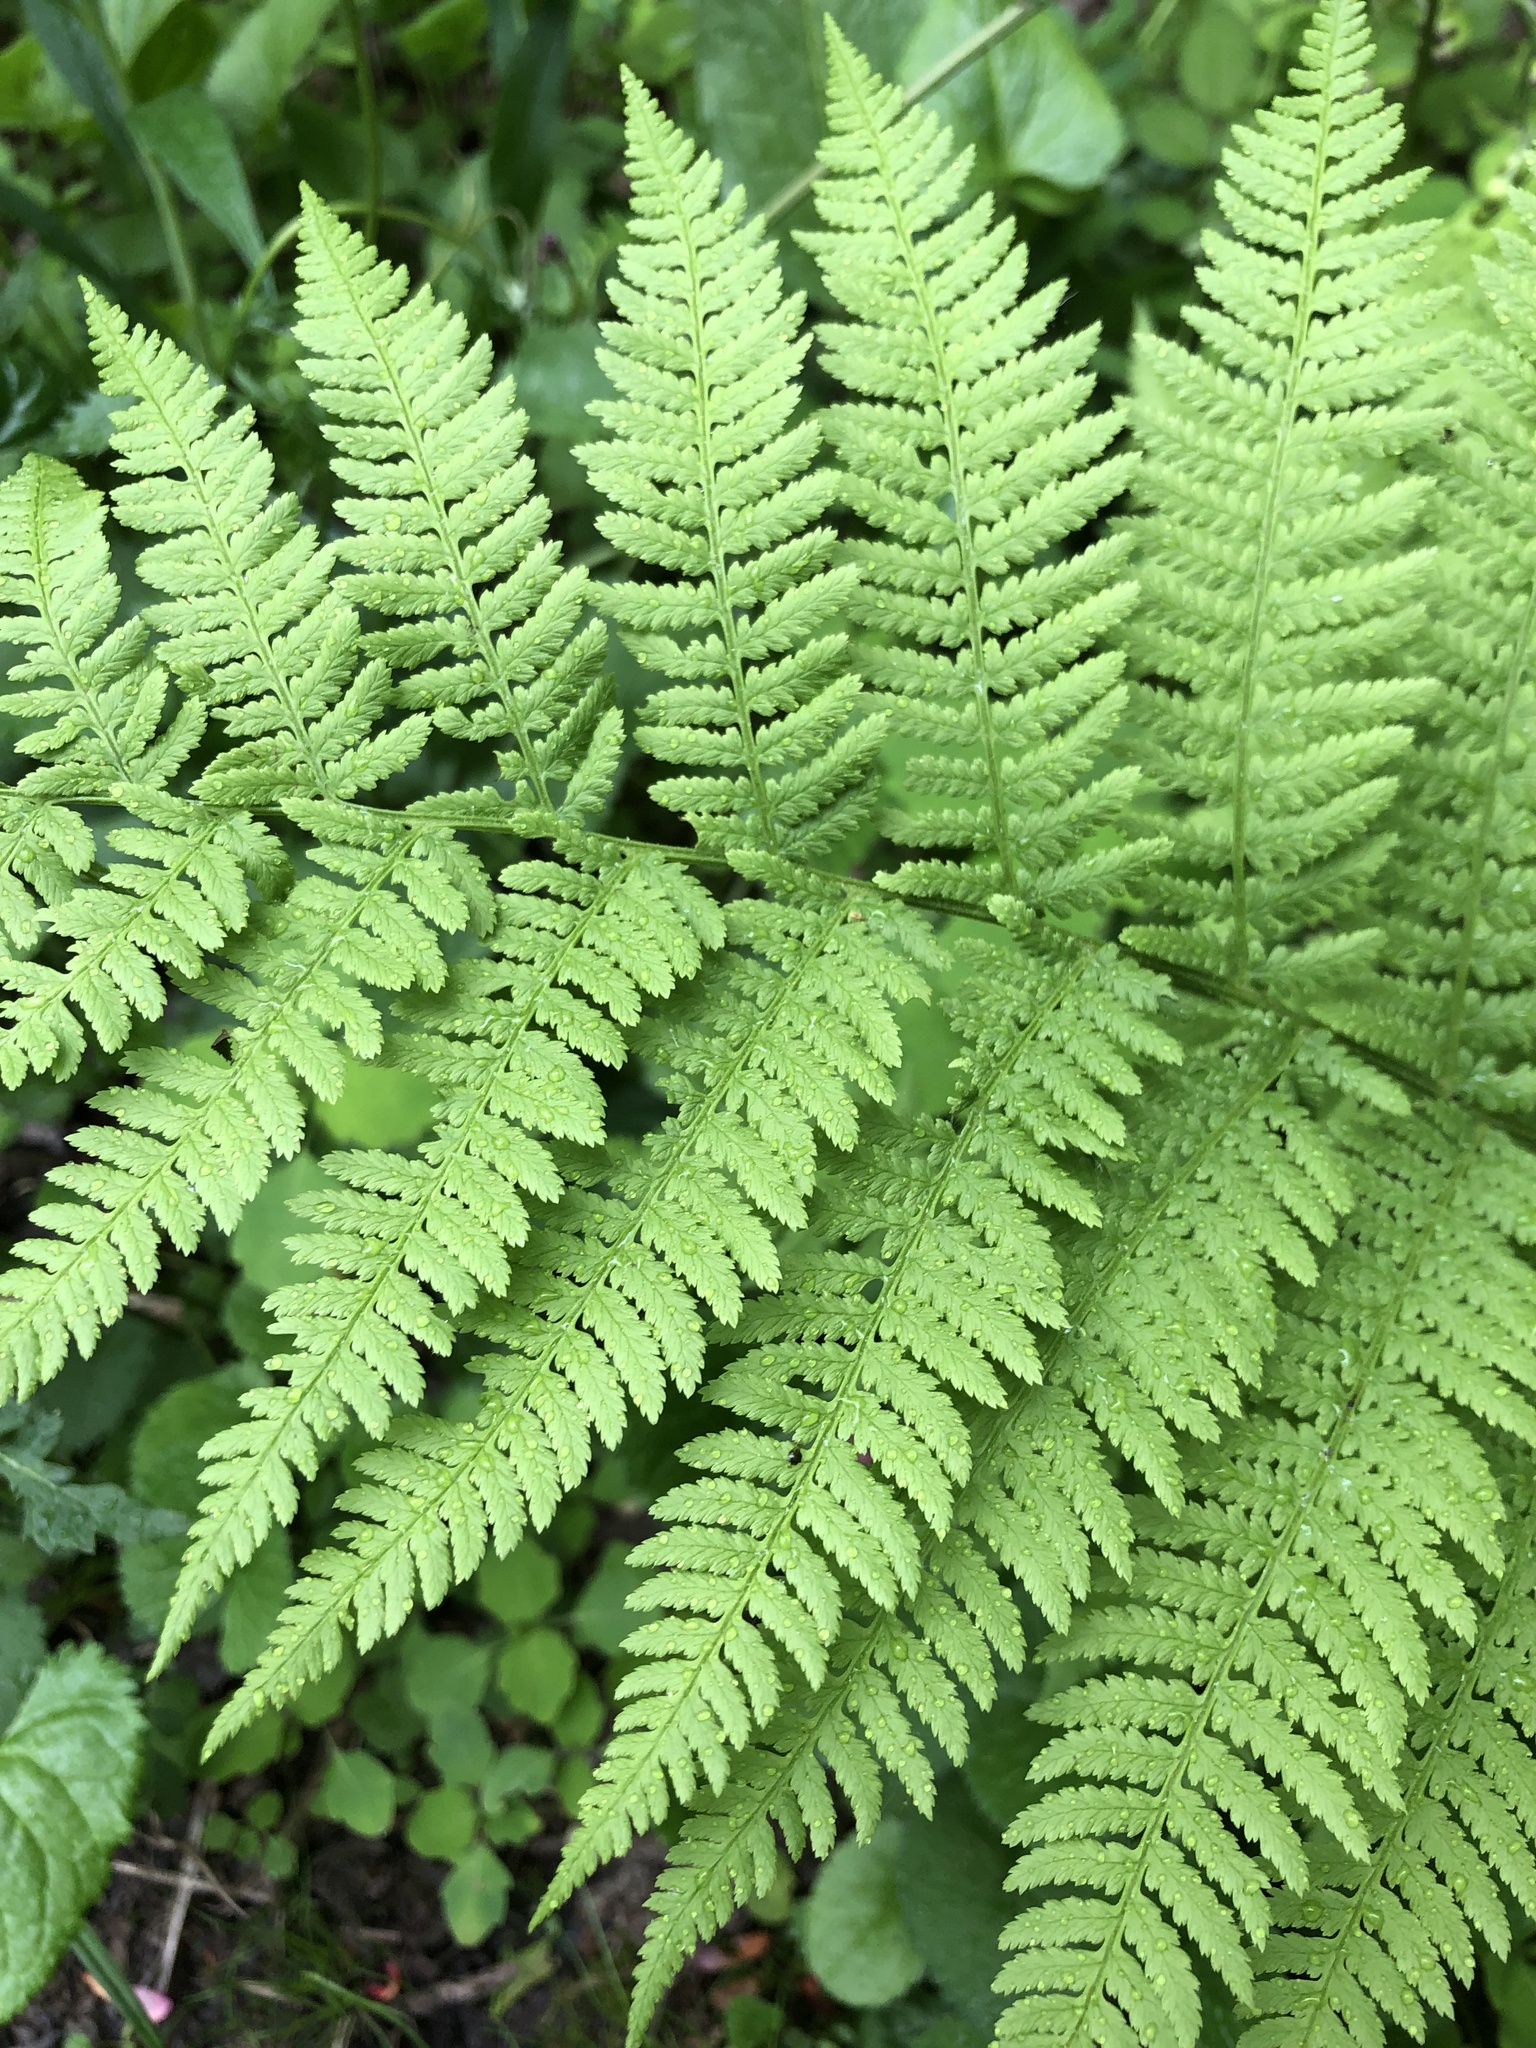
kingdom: Plantae
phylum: Tracheophyta
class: Polypodiopsida
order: Polypodiales
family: Athyriaceae
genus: Athyrium
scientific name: Athyrium angustum
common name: Northern lady fern
